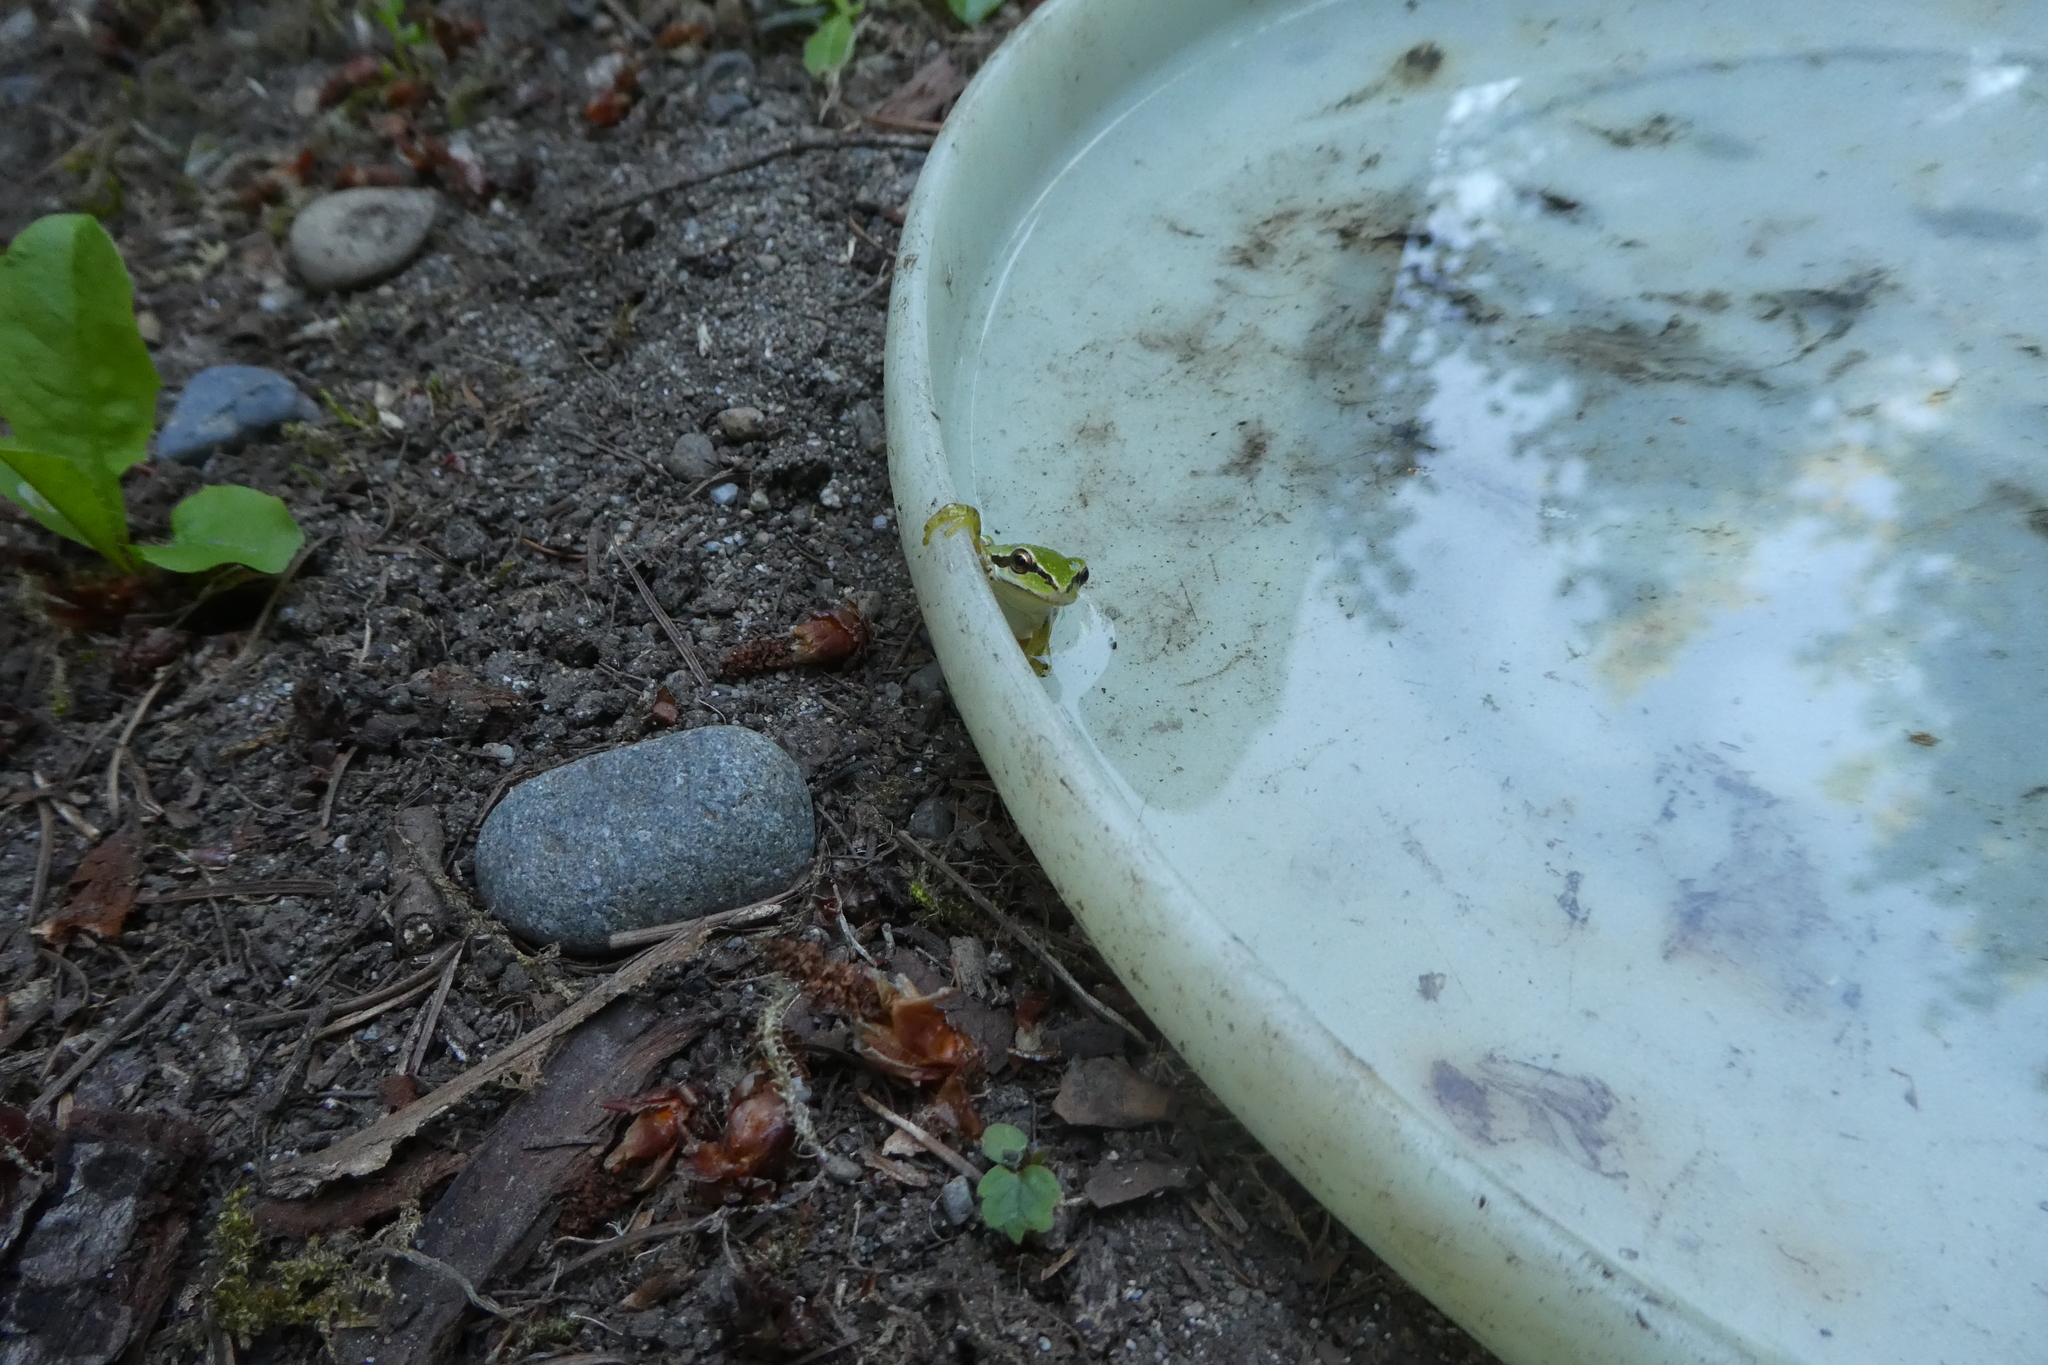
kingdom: Animalia
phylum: Chordata
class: Amphibia
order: Anura
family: Hylidae
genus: Pseudacris
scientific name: Pseudacris regilla
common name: Pacific chorus frog
